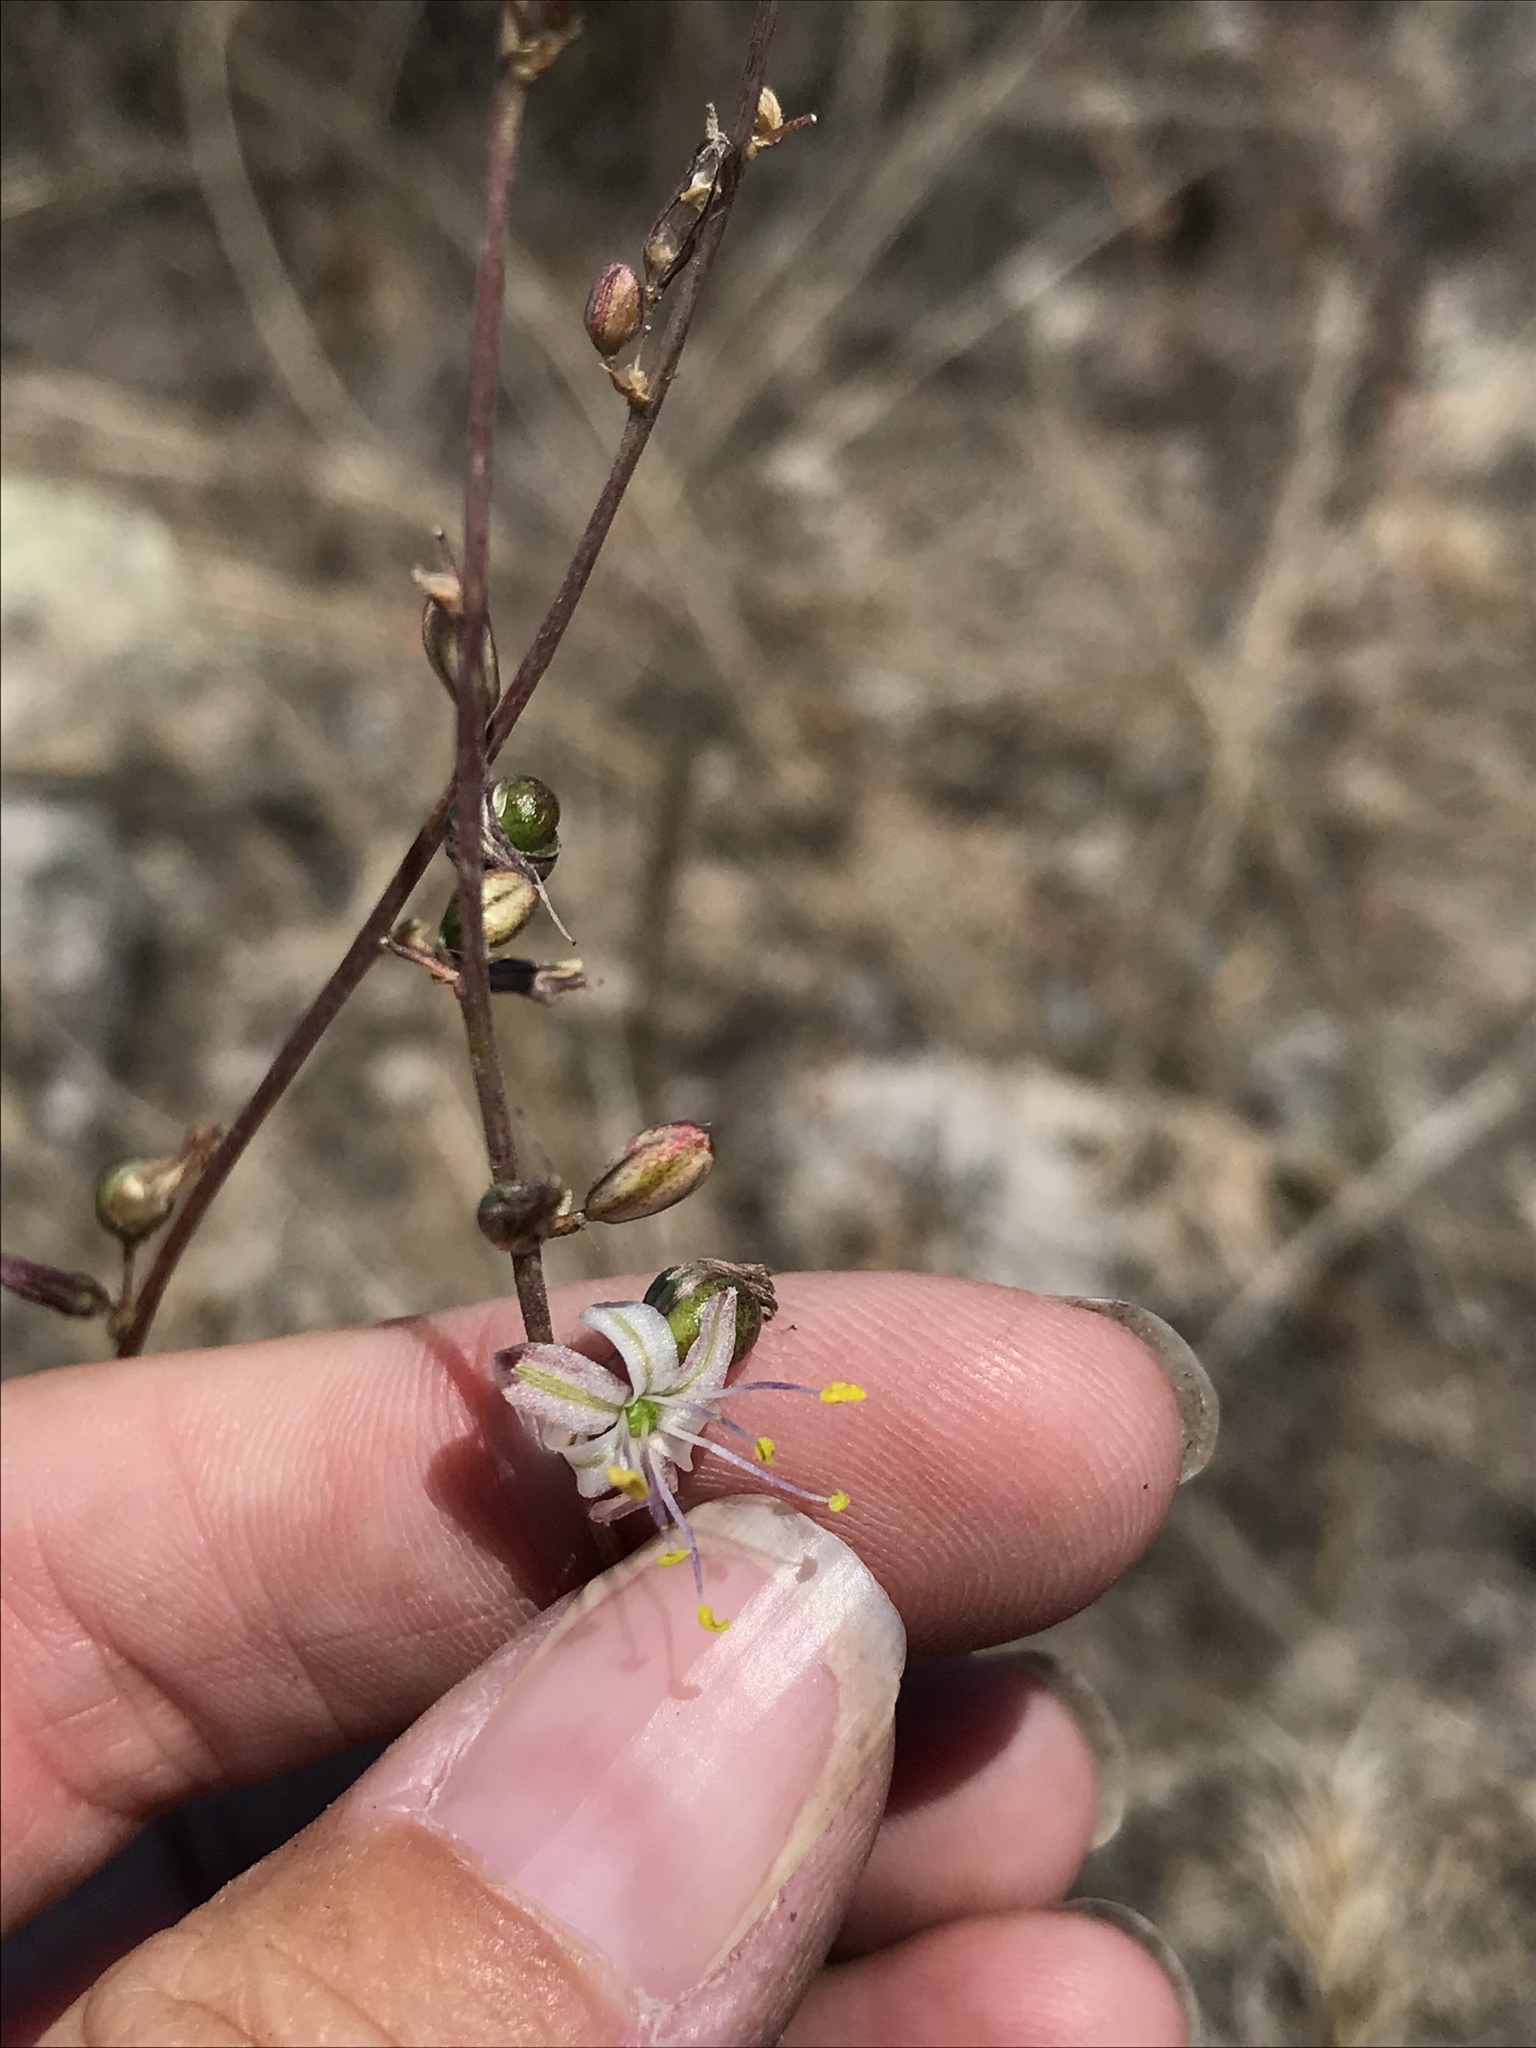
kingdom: Plantae
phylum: Tracheophyta
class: Liliopsida
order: Asparagales
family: Asparagaceae
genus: Hooveria
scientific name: Hooveria parviflora
